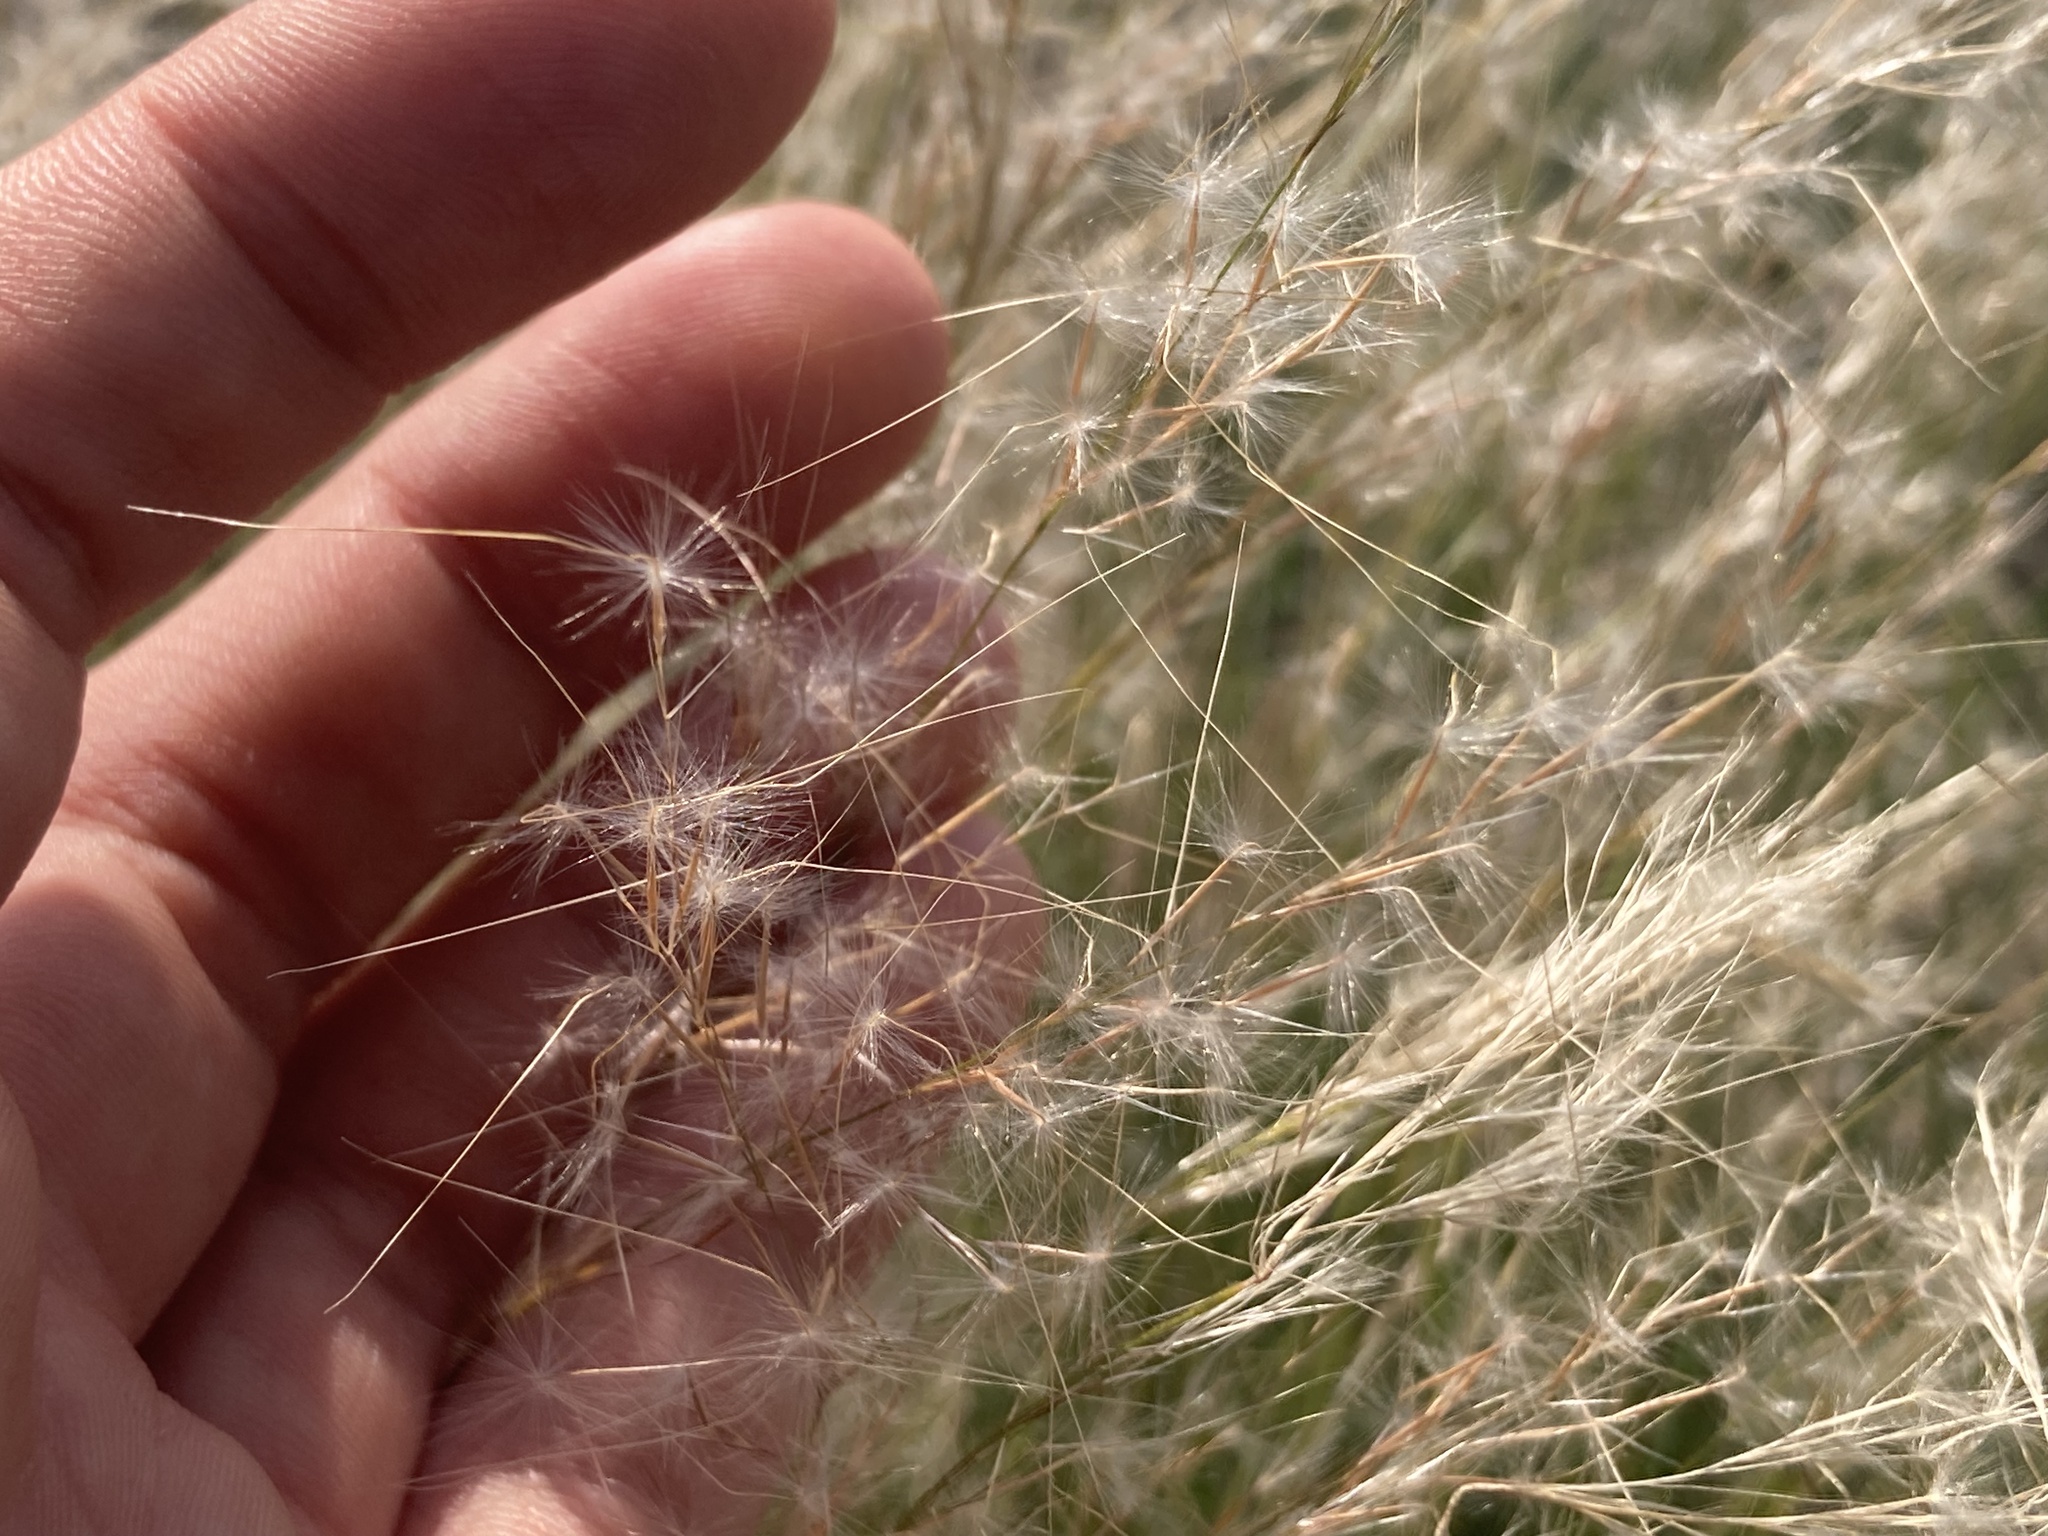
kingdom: Plantae
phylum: Tracheophyta
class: Liliopsida
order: Poales
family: Poaceae
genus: Jarava
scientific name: Jarava plumosa
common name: South american rice grass
